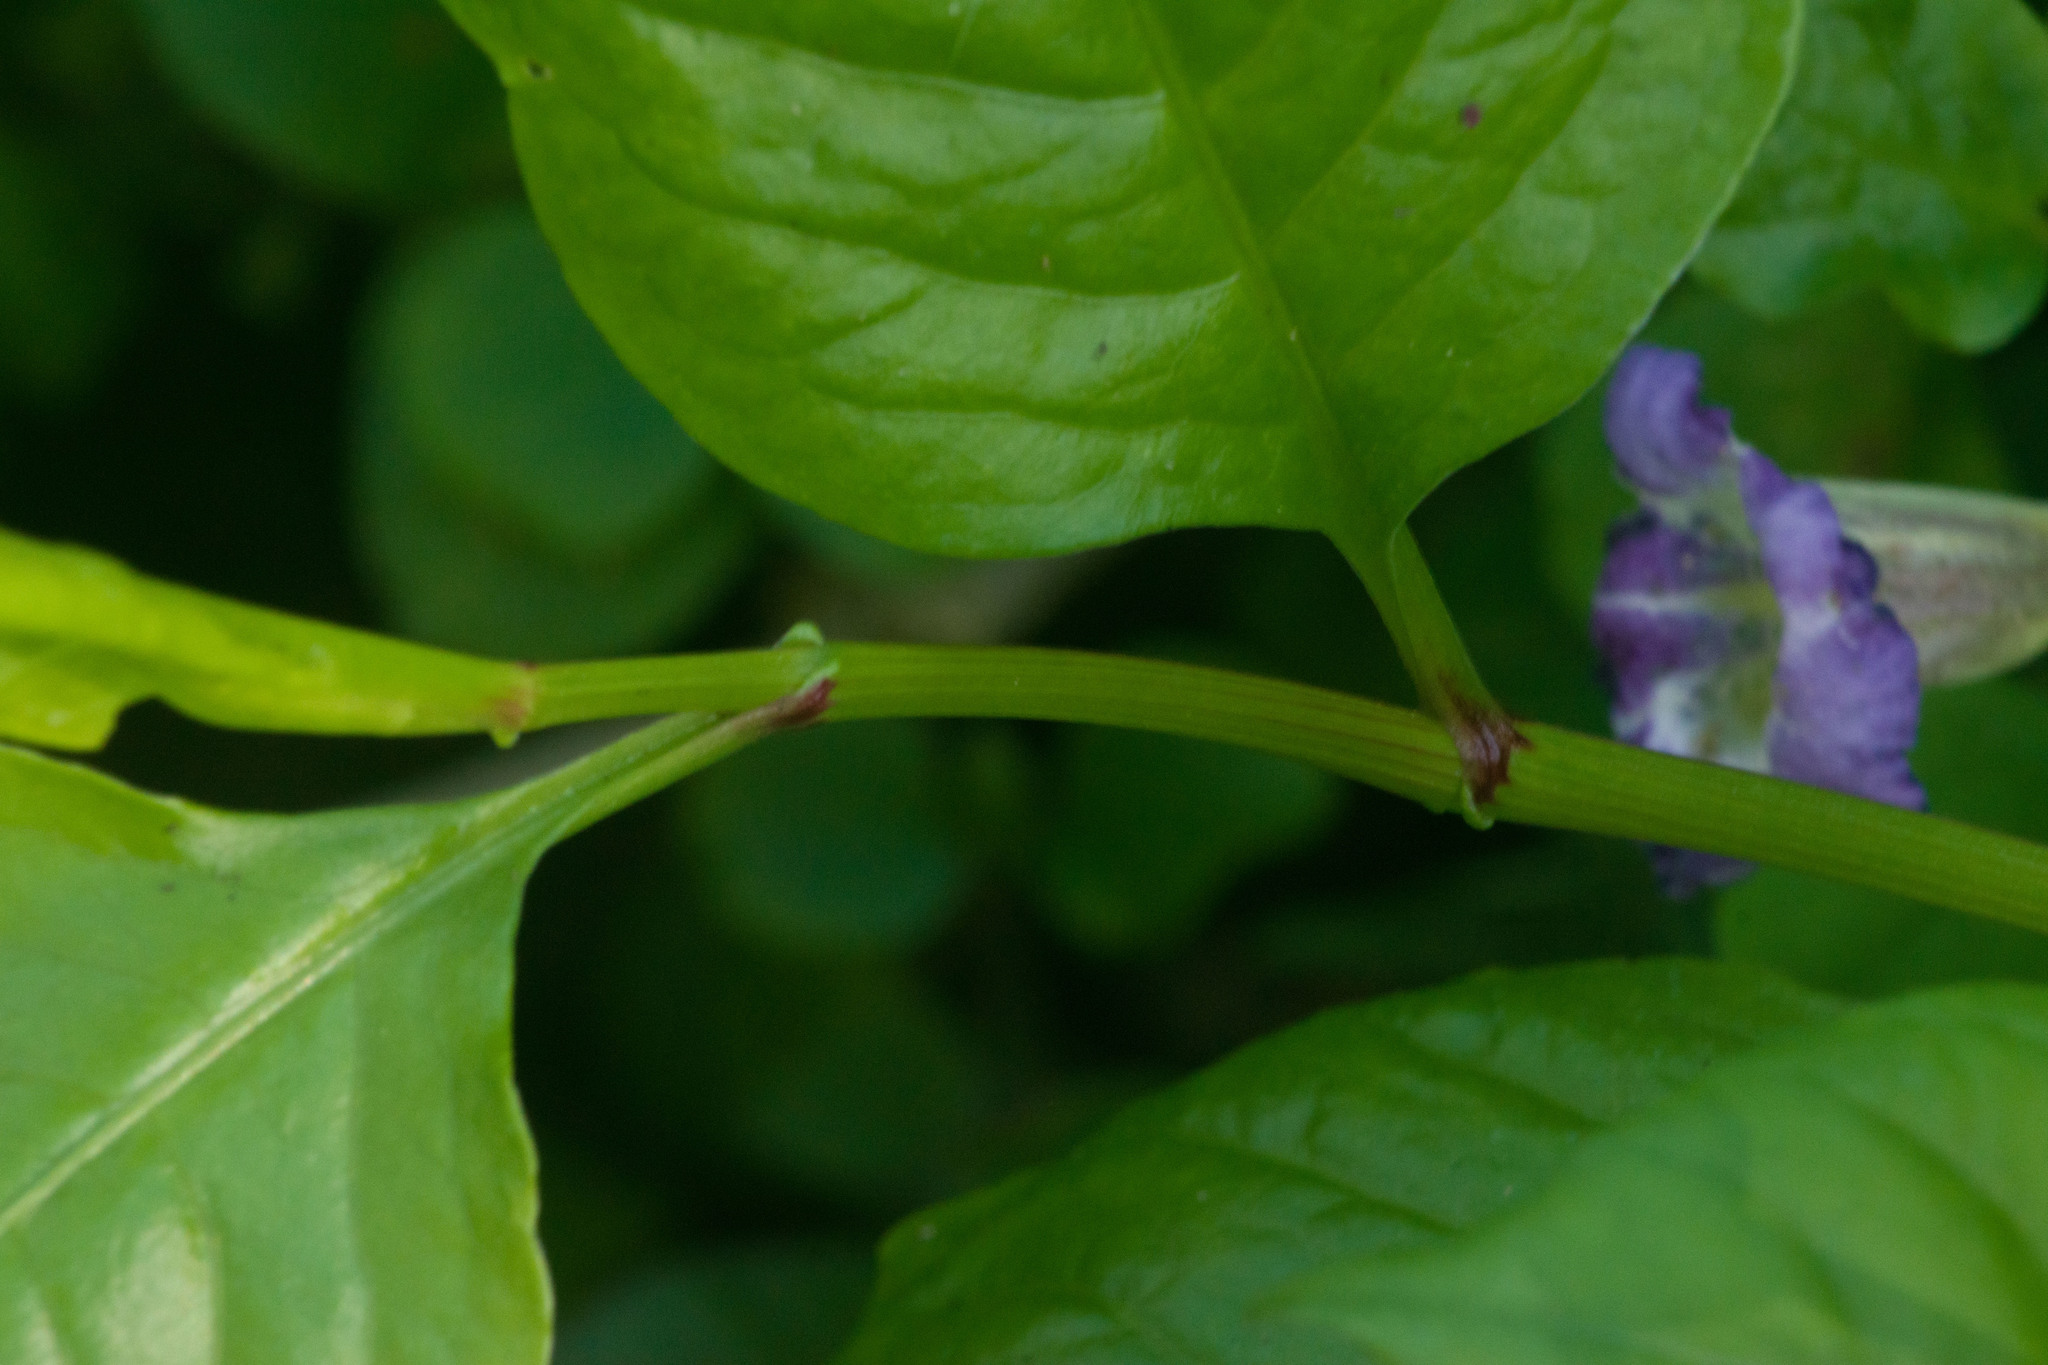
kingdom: Plantae
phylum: Tracheophyta
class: Magnoliopsida
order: Caryophyllales
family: Plumbaginaceae
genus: Plumbago
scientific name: Plumbago zeylanica
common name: Doctorbush
